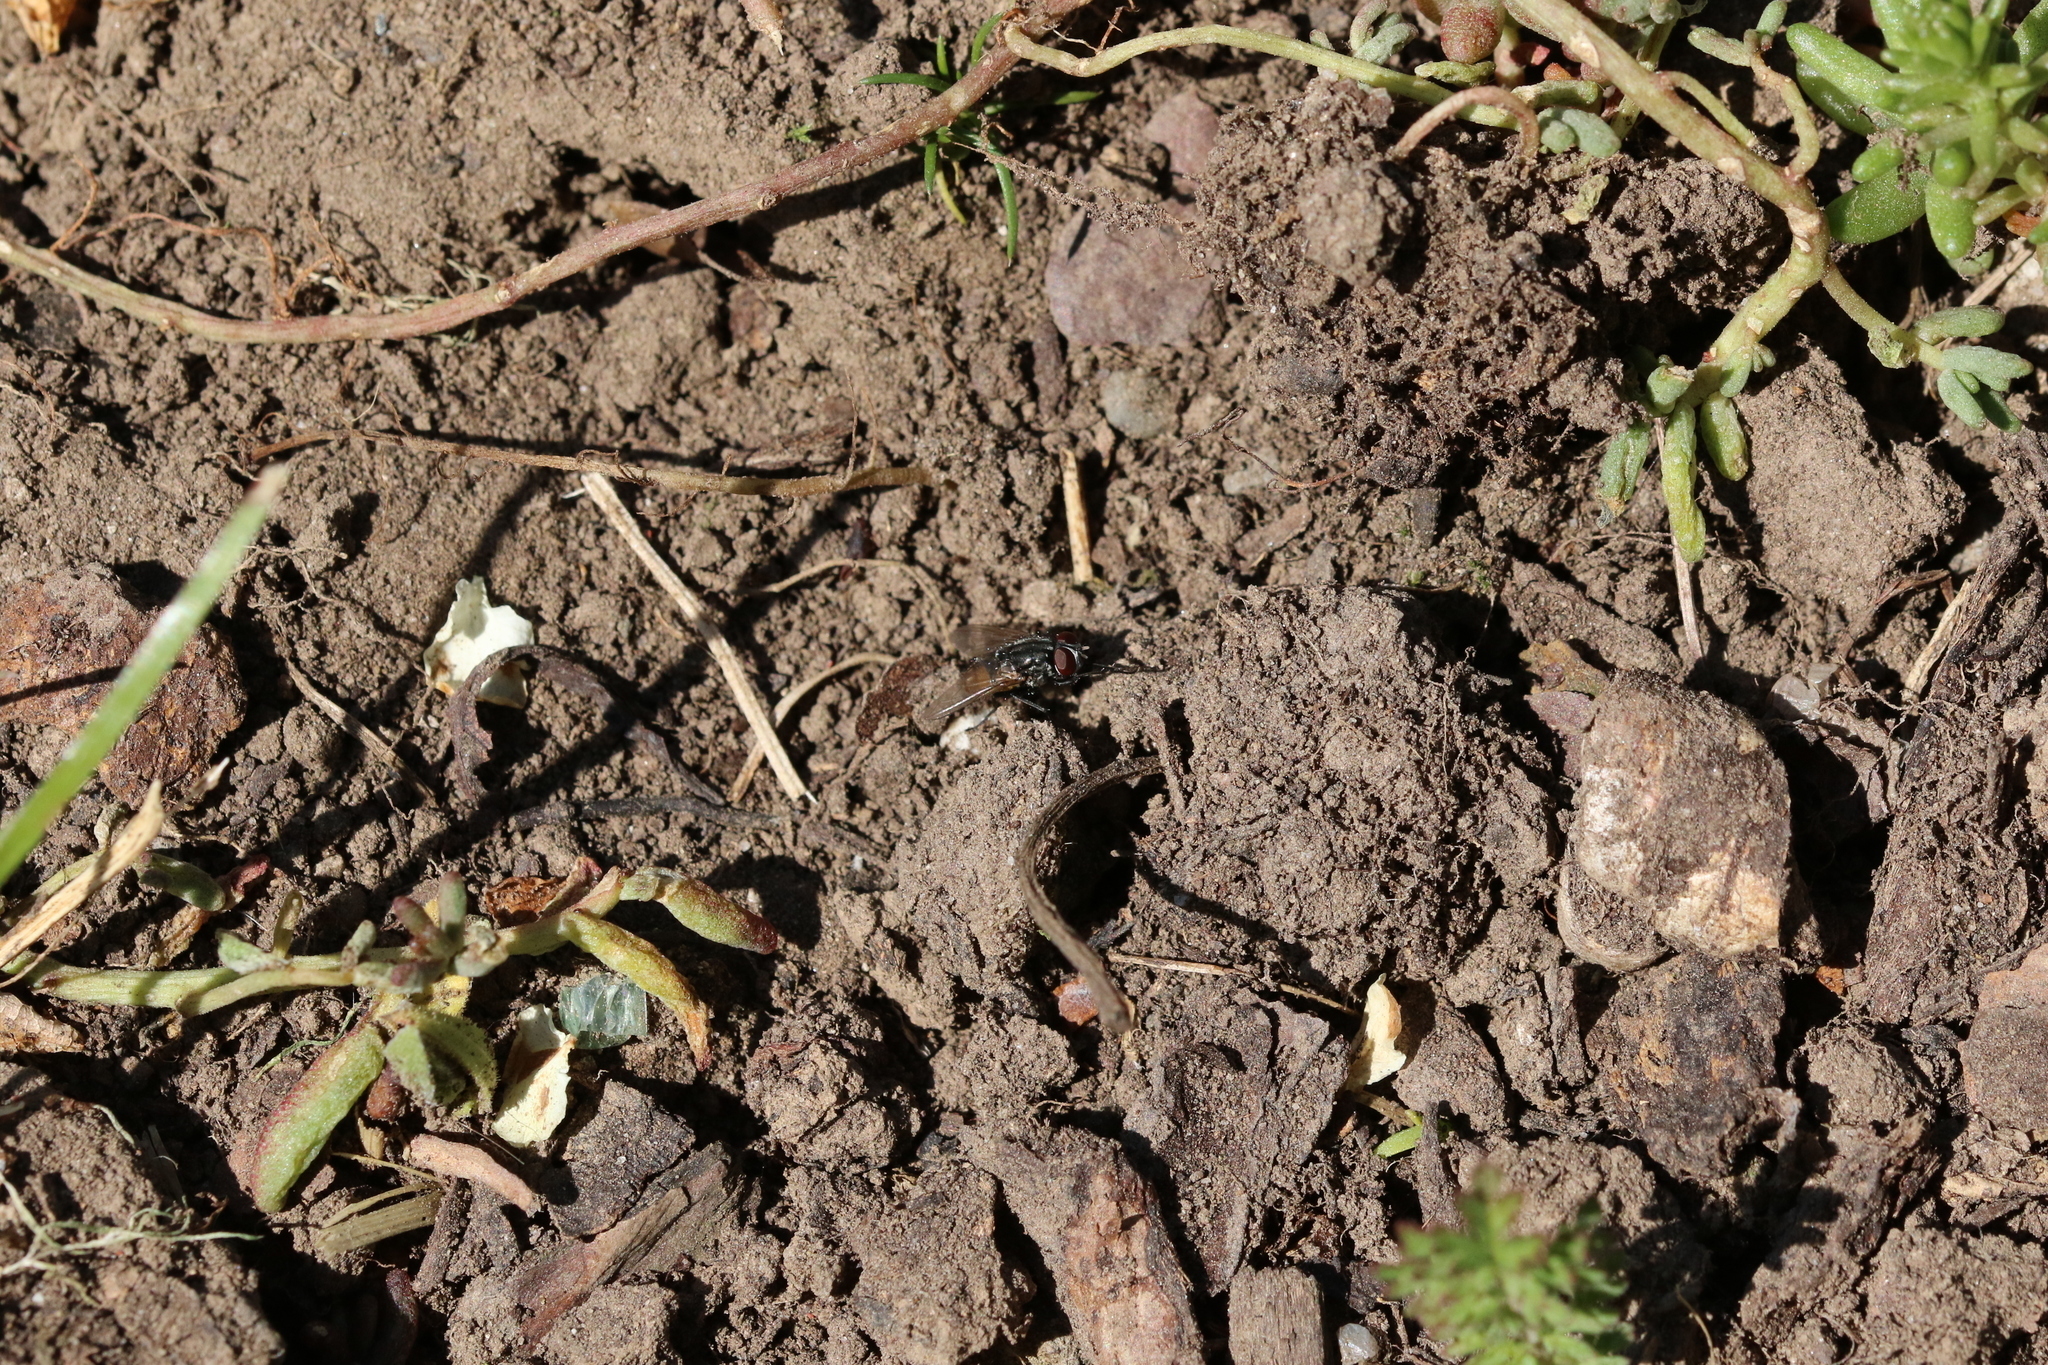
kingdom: Animalia
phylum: Arthropoda
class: Insecta
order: Diptera
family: Muscidae
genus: Musca
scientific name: Musca autumnalis
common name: Face fly
